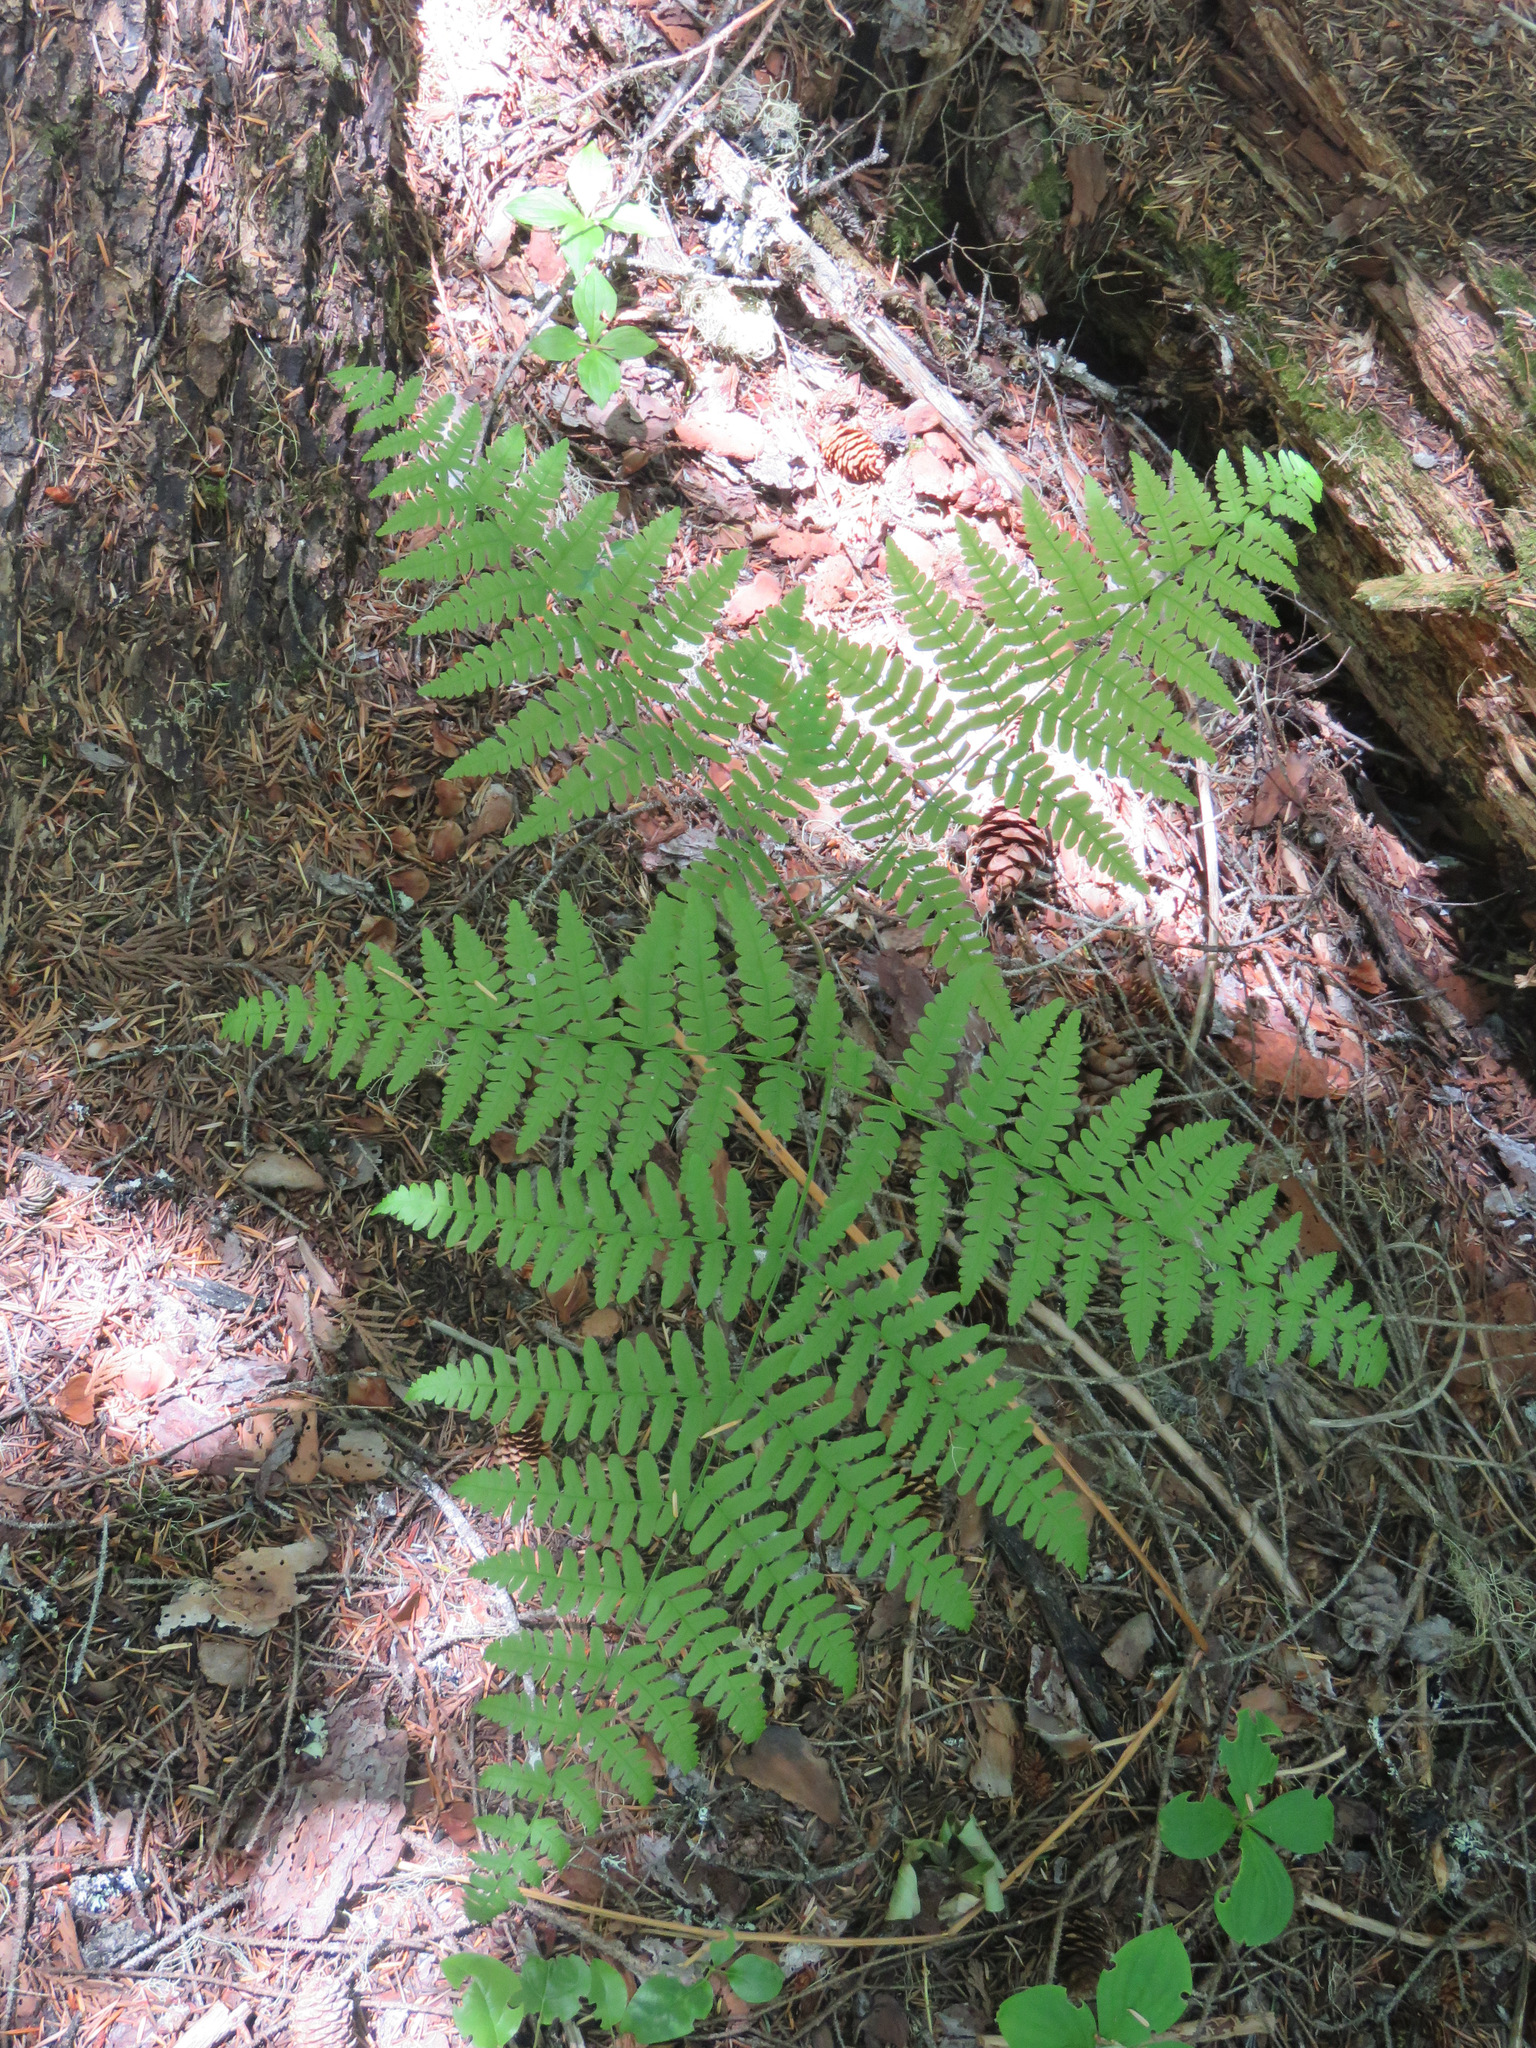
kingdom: Plantae
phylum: Tracheophyta
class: Polypodiopsida
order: Polypodiales
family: Dennstaedtiaceae
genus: Pteridium
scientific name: Pteridium aquilinum
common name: Bracken
